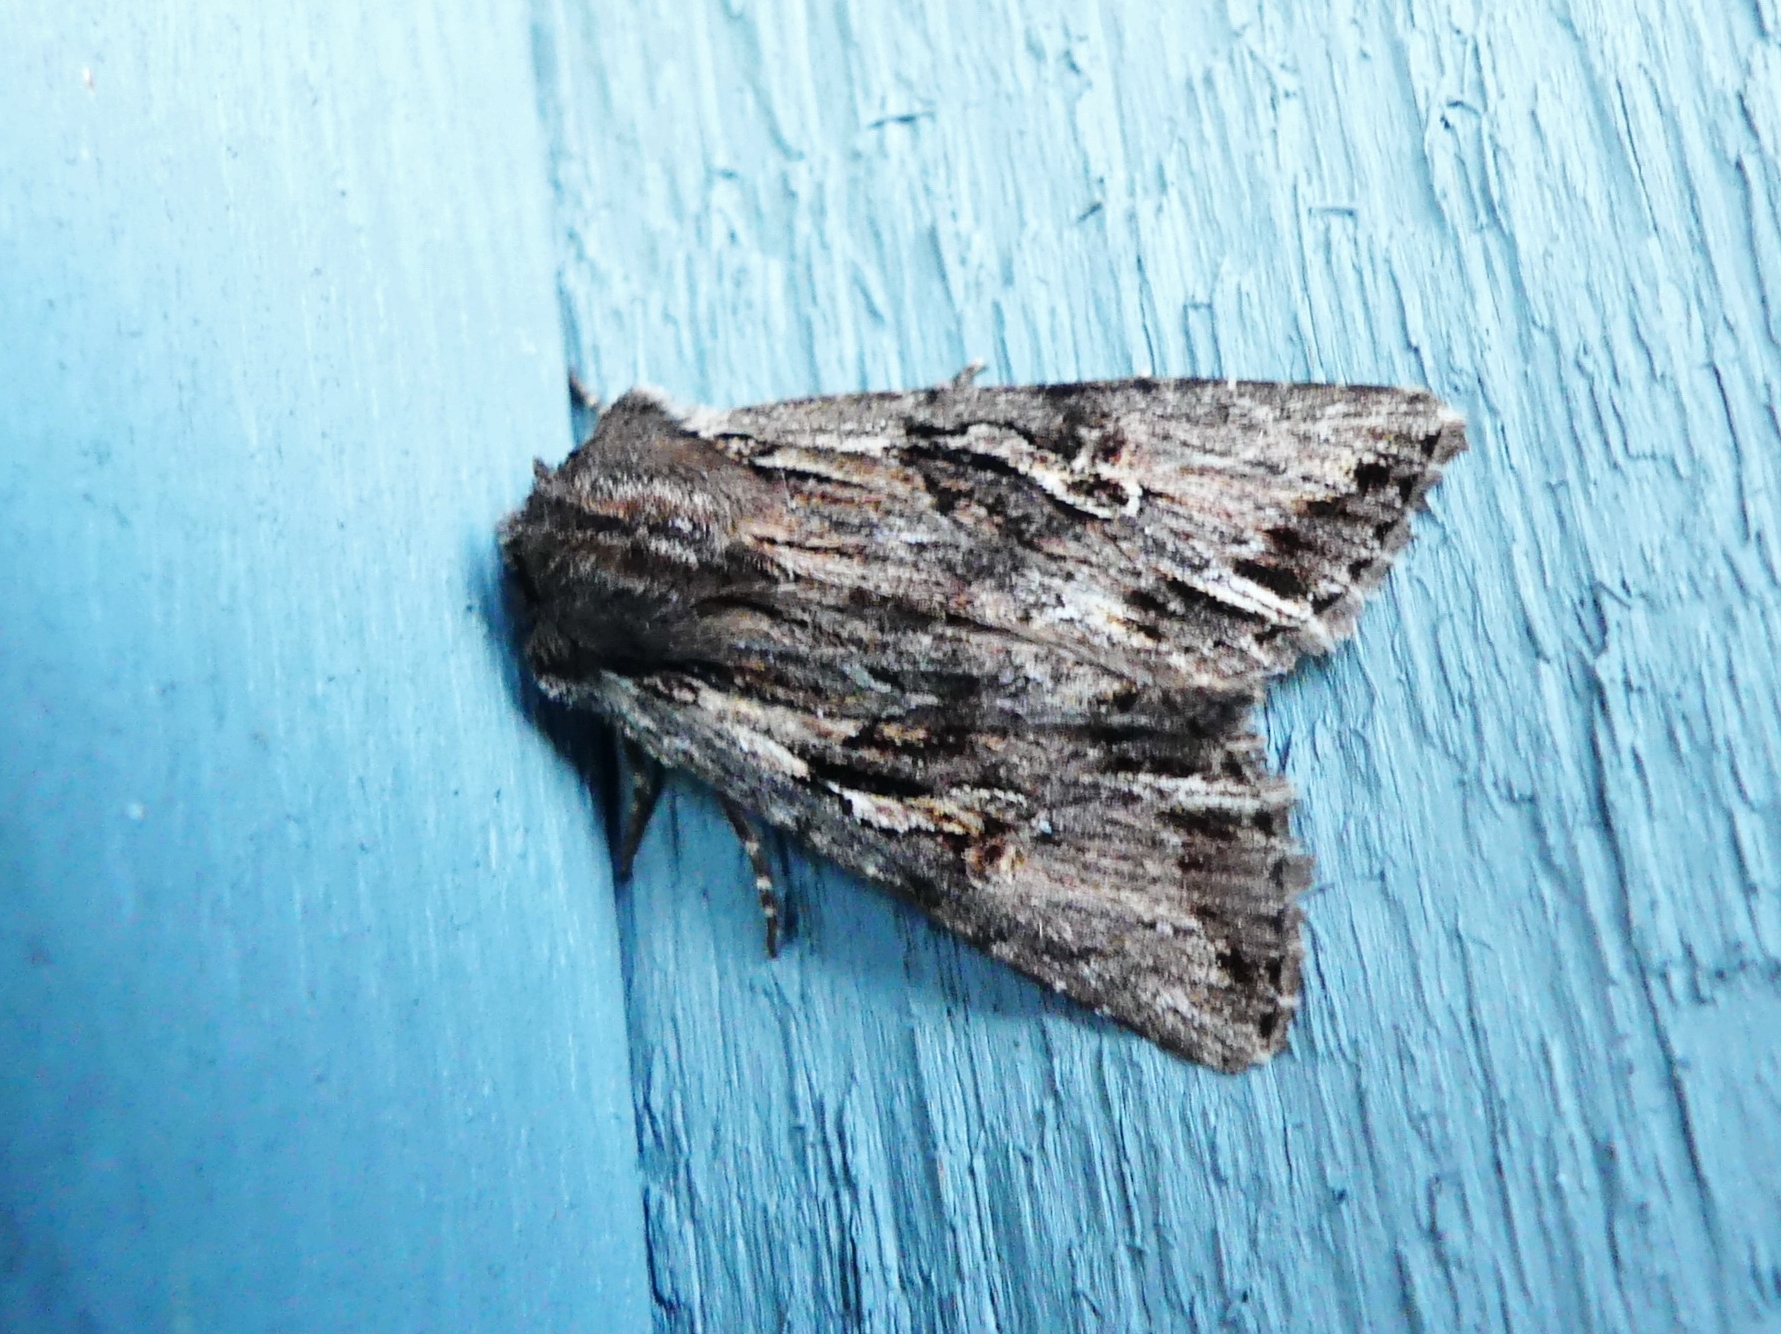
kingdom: Animalia
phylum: Arthropoda
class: Insecta
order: Lepidoptera
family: Noctuidae
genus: Achatia
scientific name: Achatia evicta
